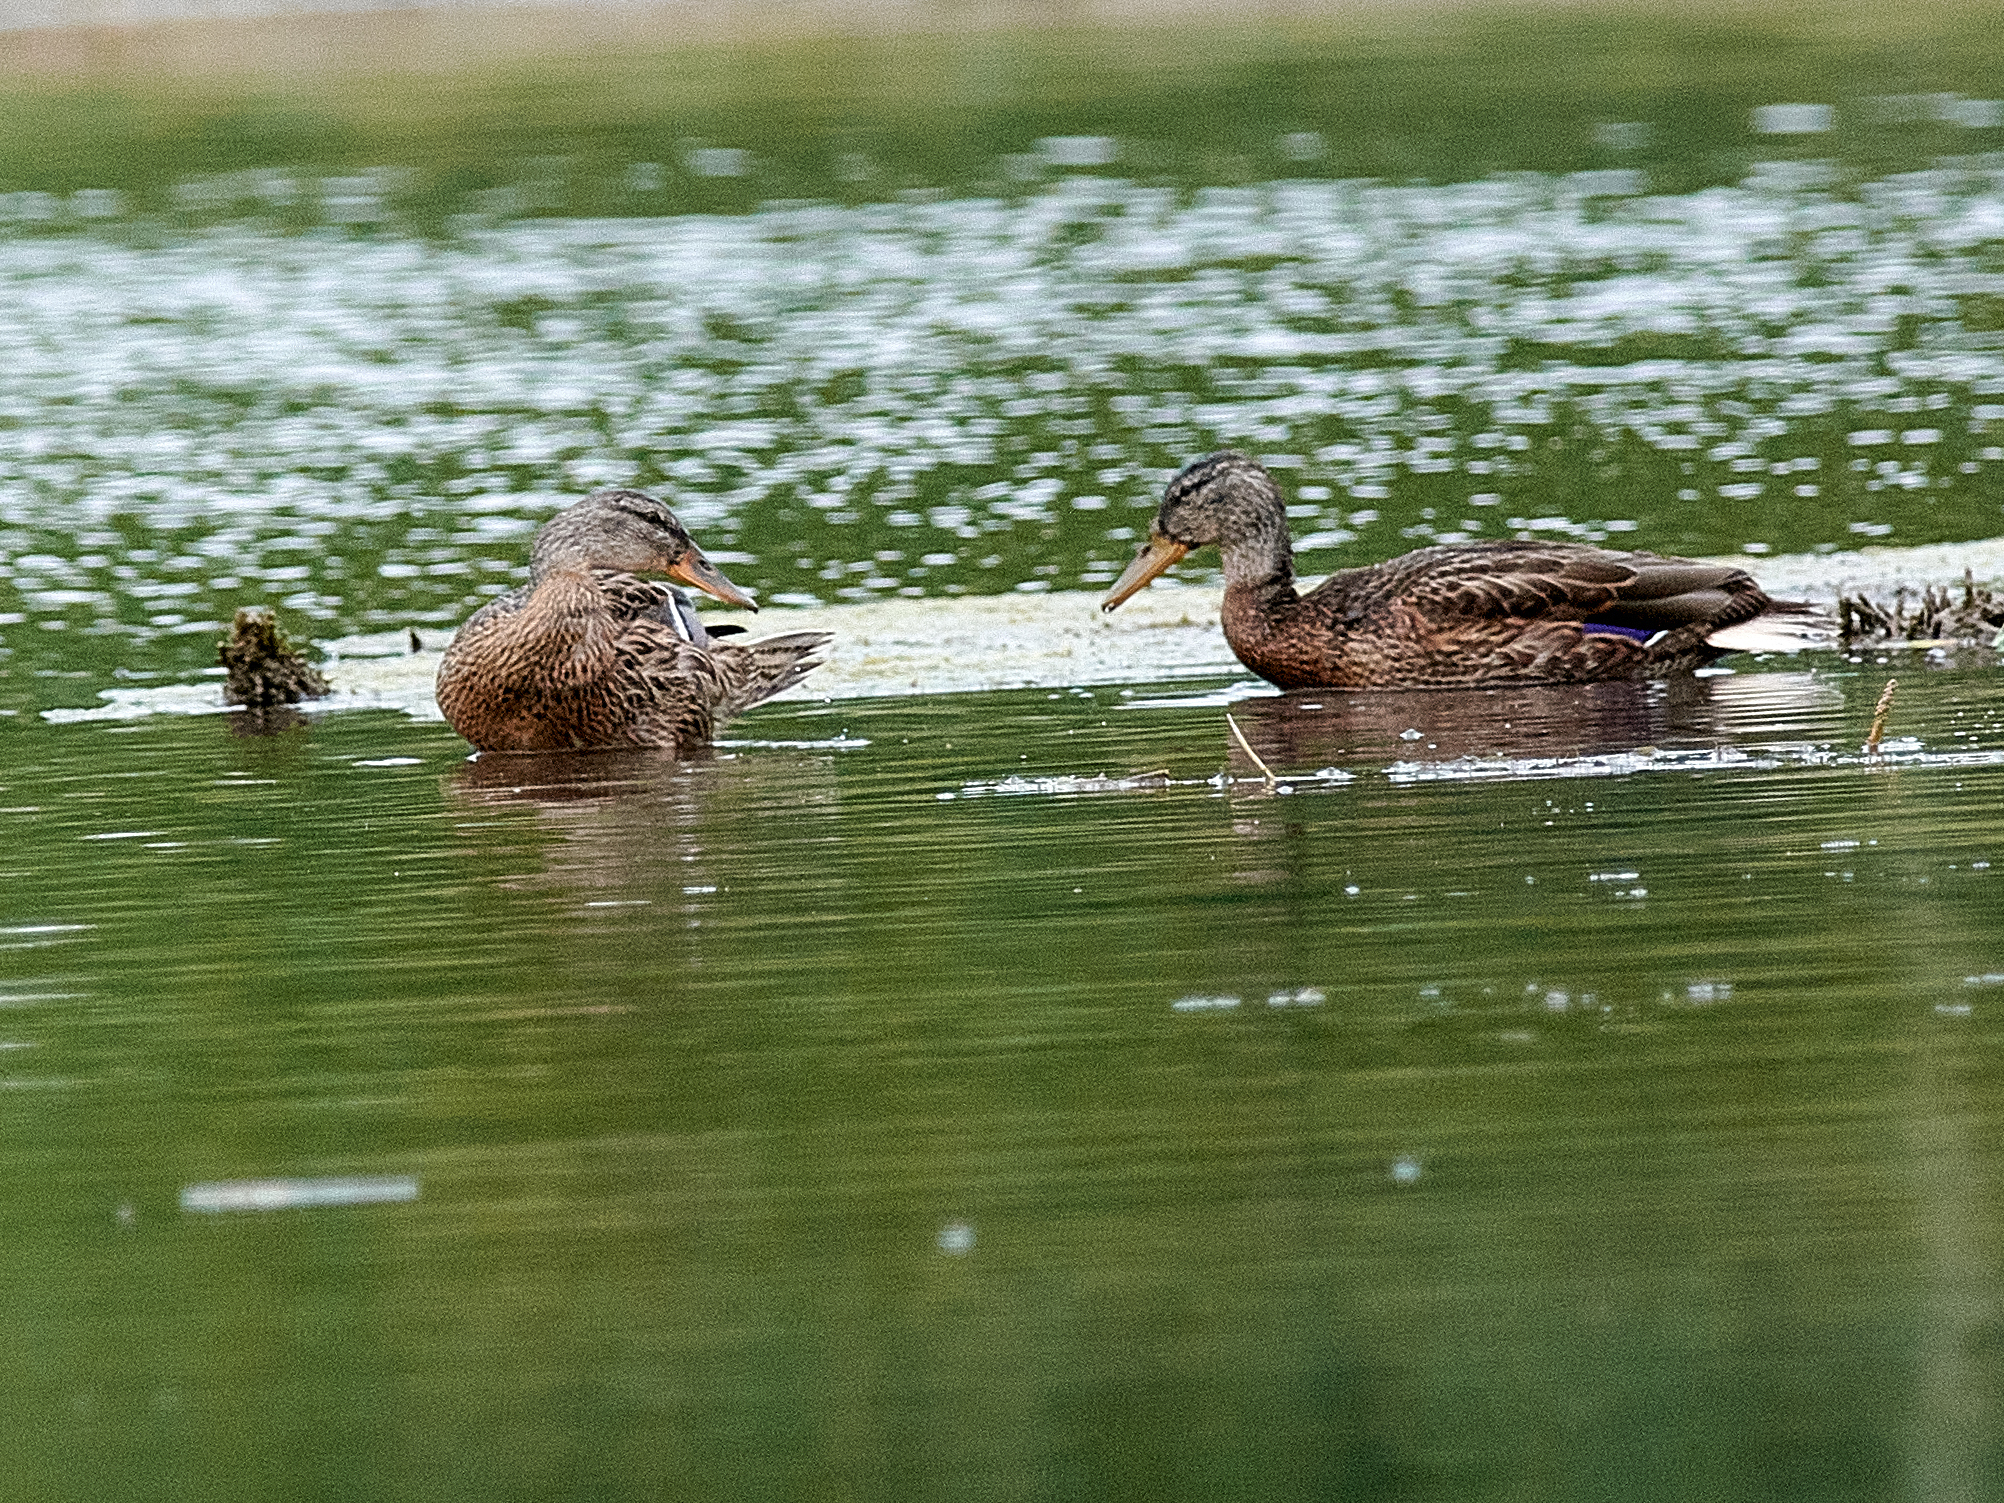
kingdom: Animalia
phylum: Chordata
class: Aves
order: Anseriformes
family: Anatidae
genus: Anas
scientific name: Anas platyrhynchos
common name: Mallard
